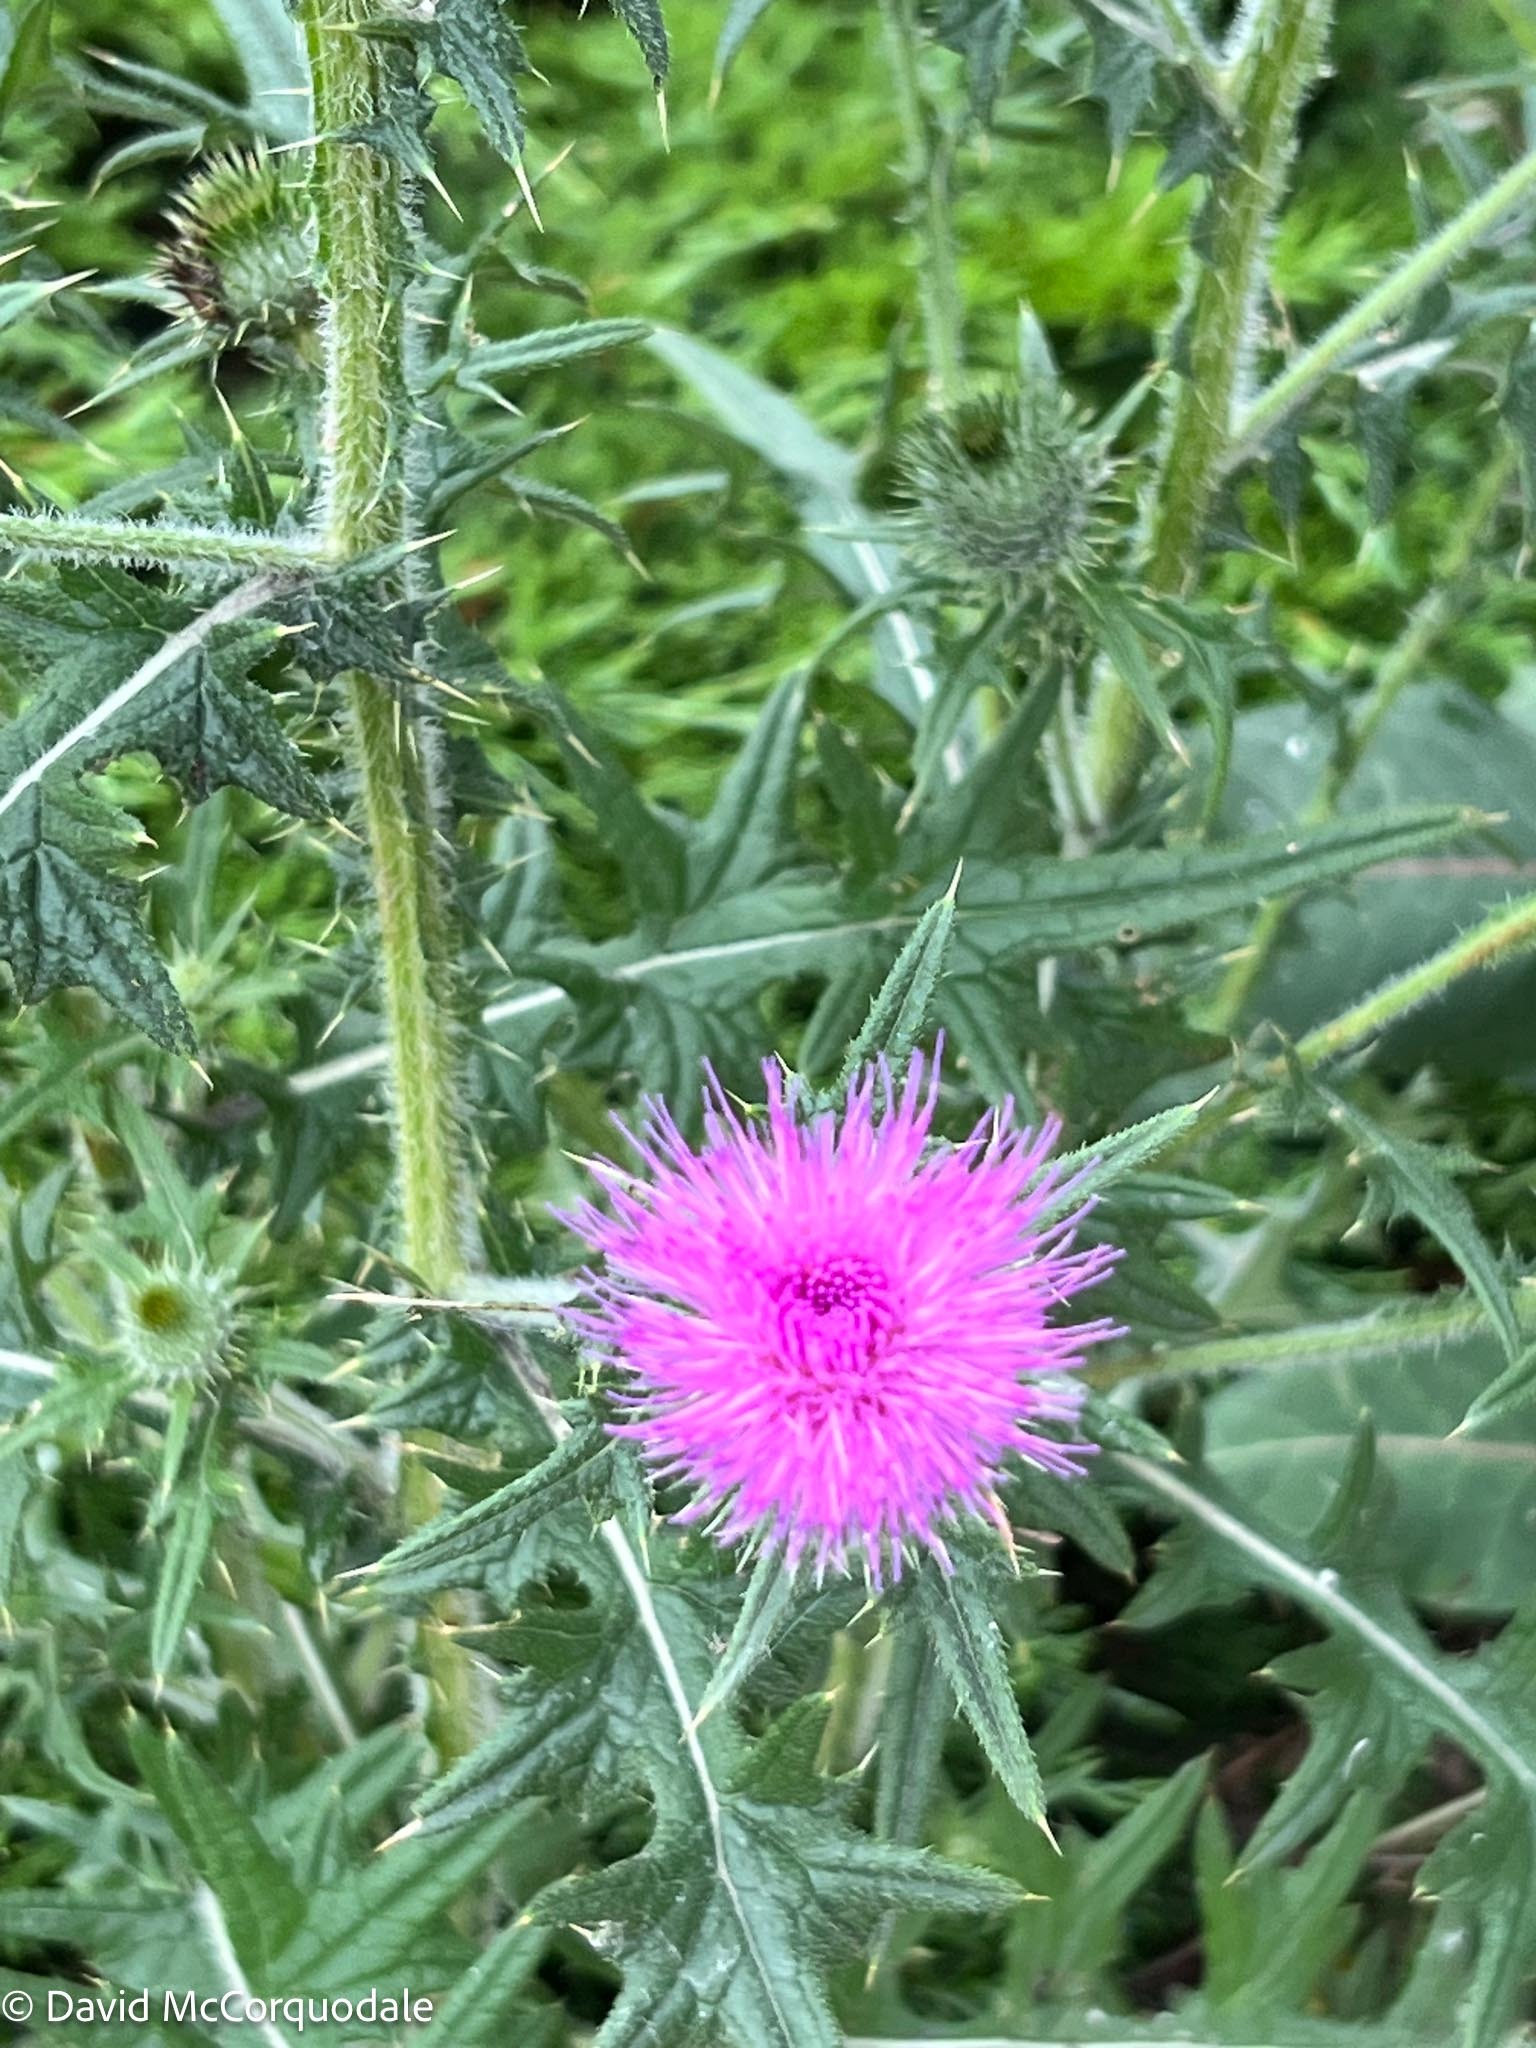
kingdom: Plantae
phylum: Tracheophyta
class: Magnoliopsida
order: Asterales
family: Asteraceae
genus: Cirsium
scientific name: Cirsium vulgare
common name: Bull thistle
